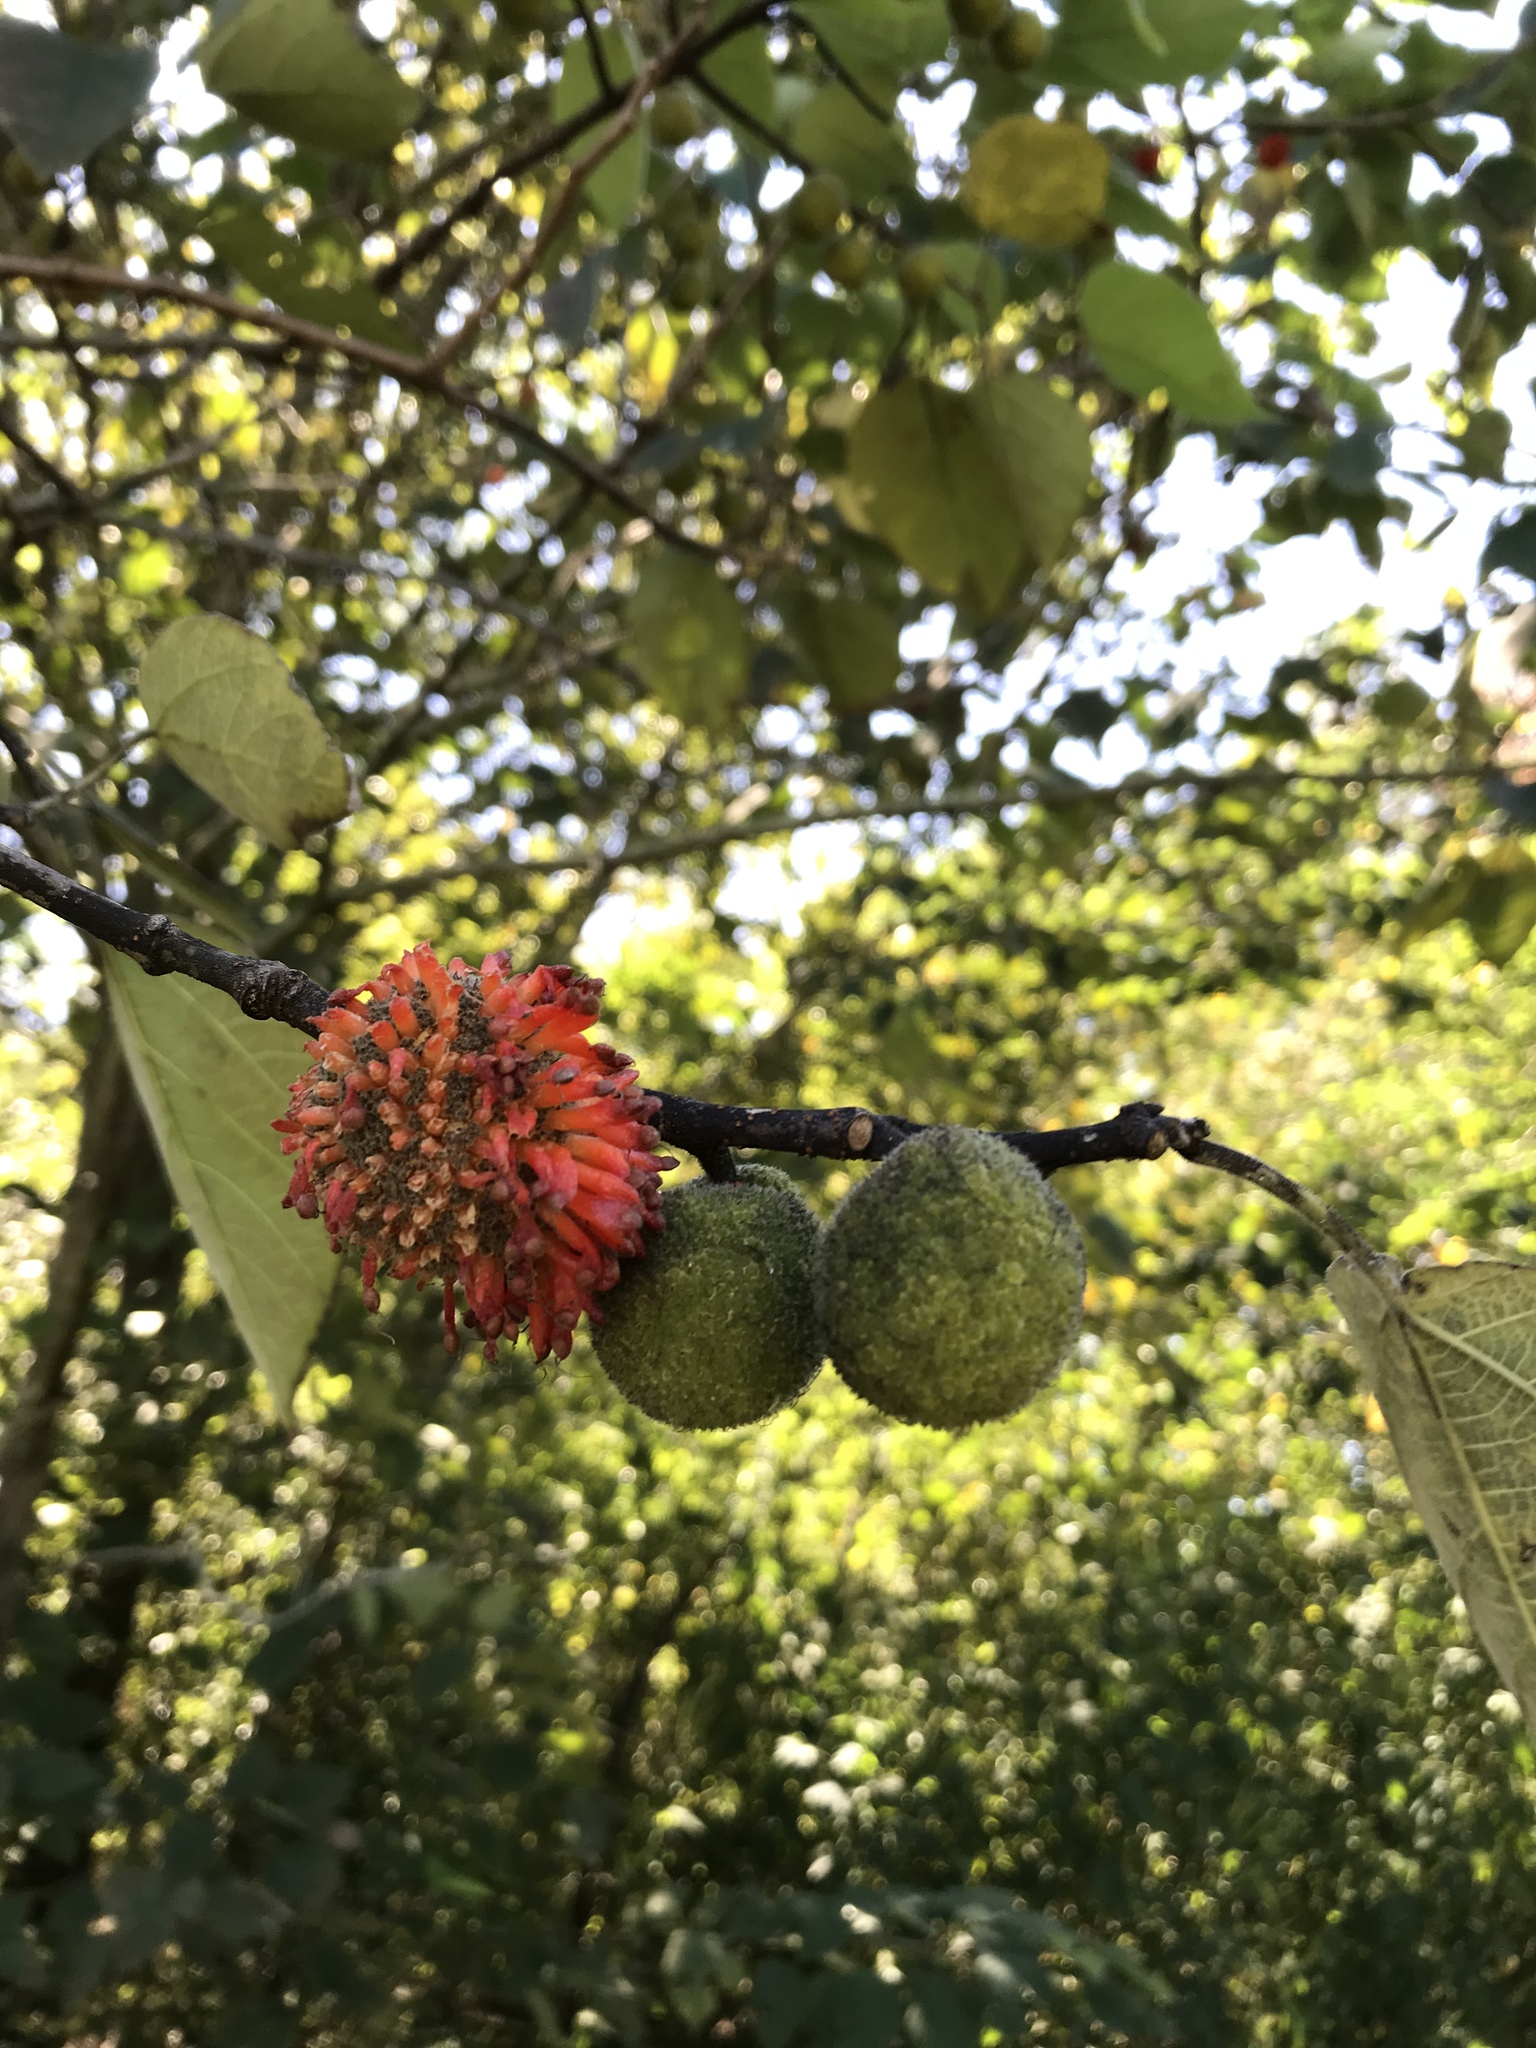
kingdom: Plantae
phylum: Tracheophyta
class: Magnoliopsida
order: Rosales
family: Moraceae
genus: Broussonetia
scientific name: Broussonetia papyrifera
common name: Paper mulberry
